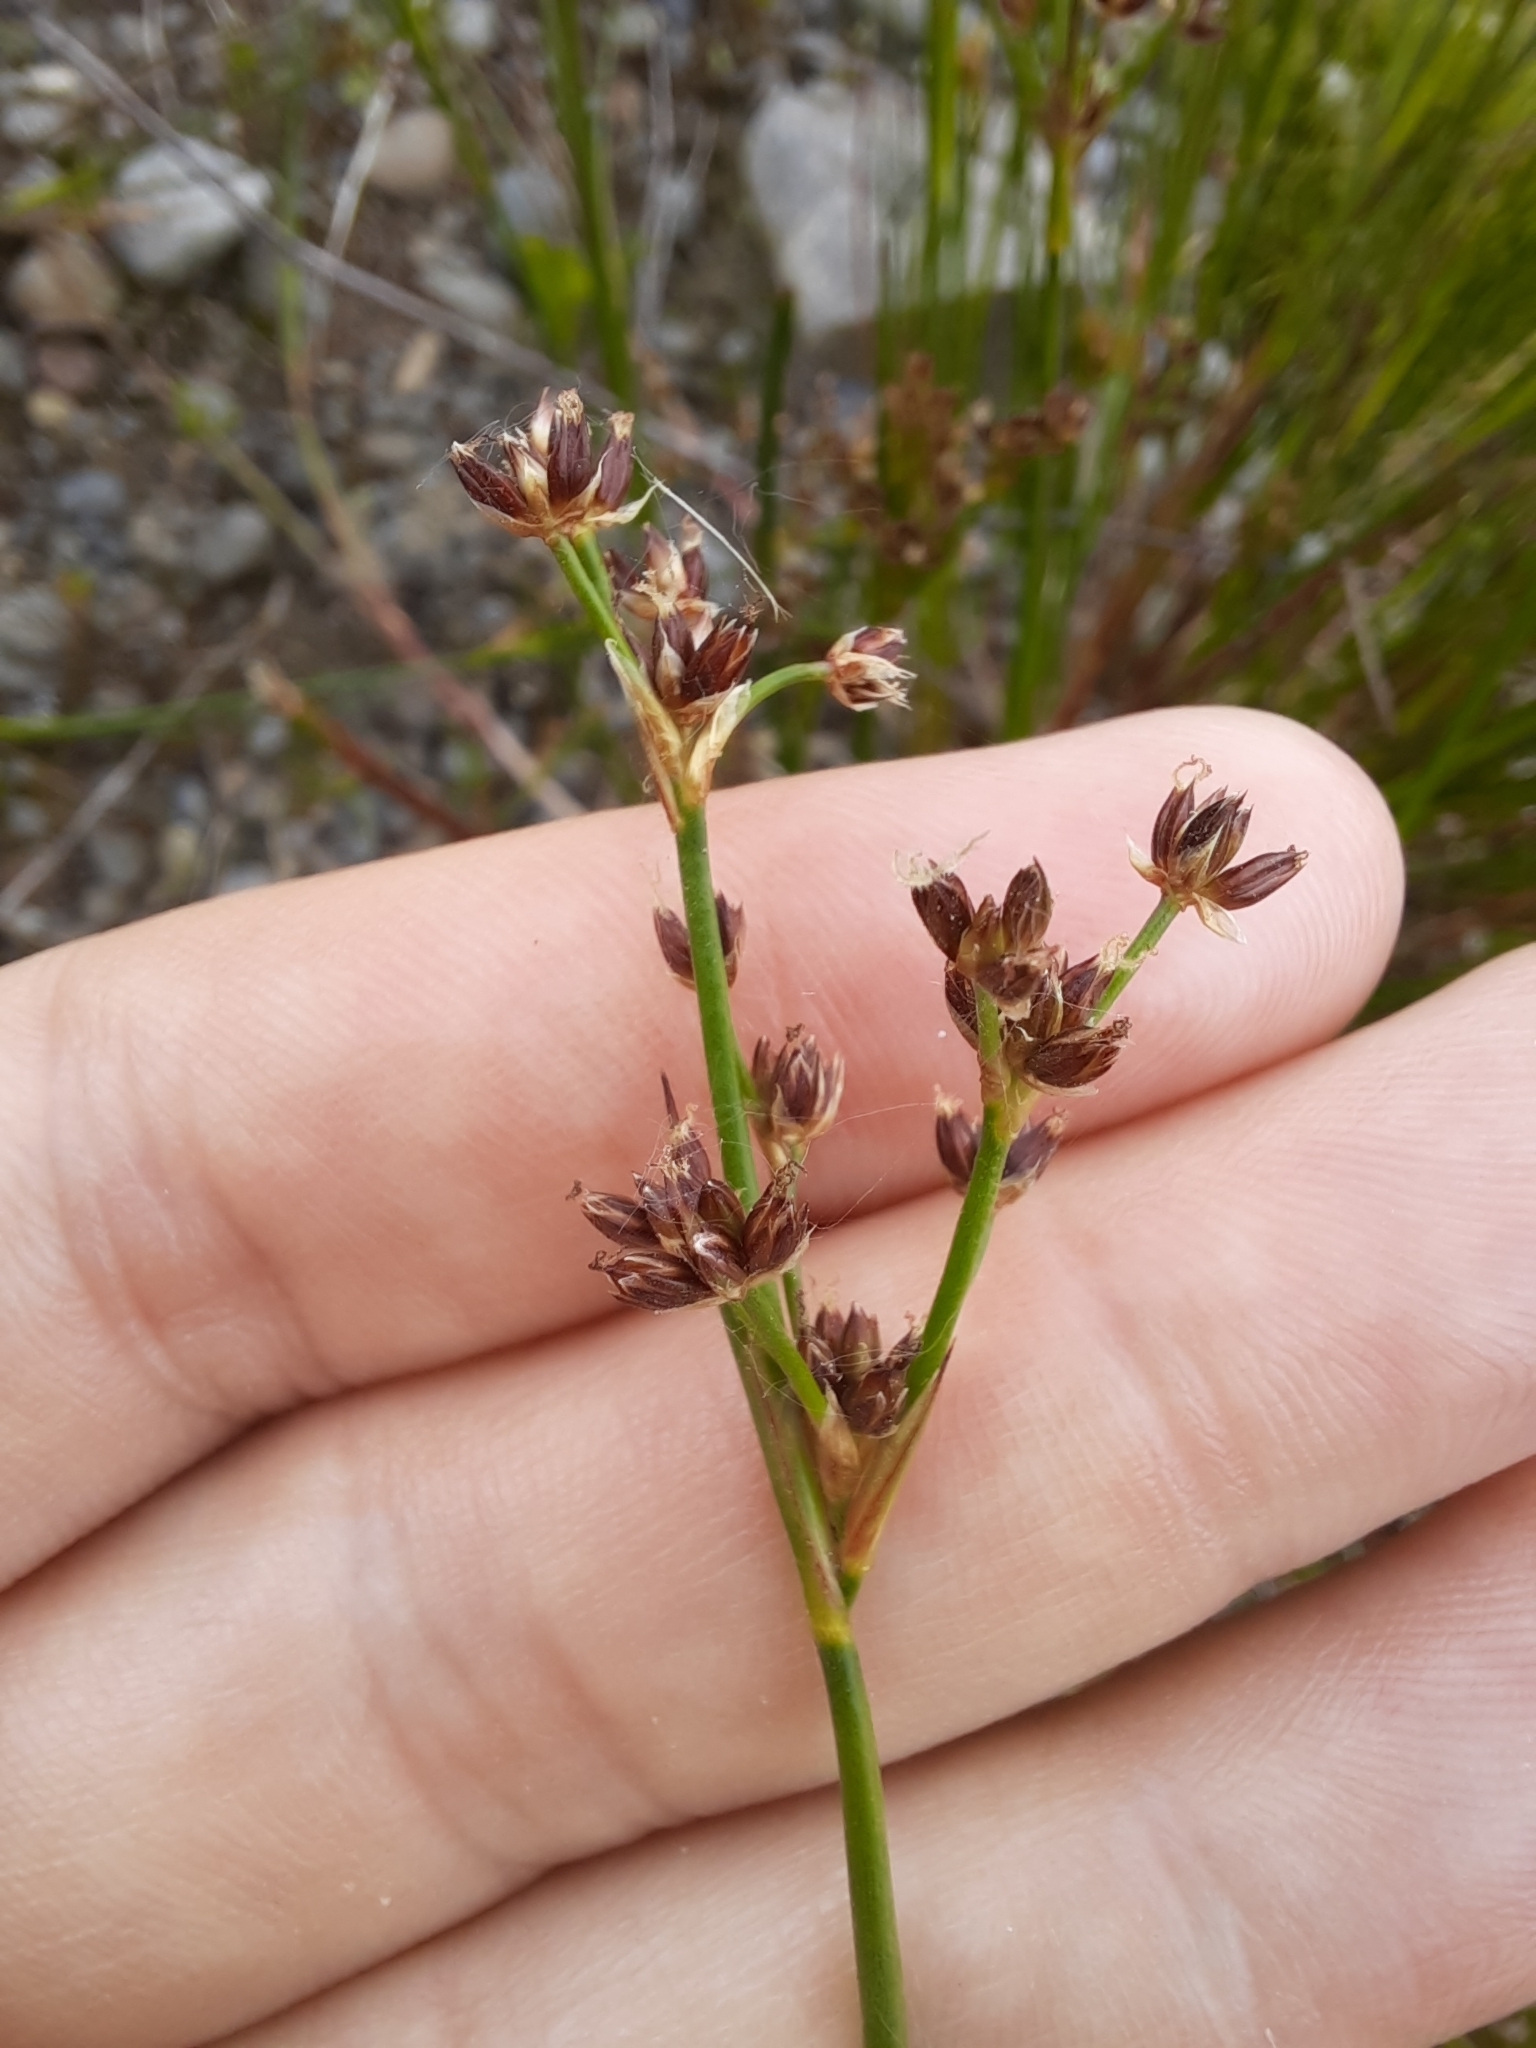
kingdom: Plantae
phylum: Tracheophyta
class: Liliopsida
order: Poales
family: Juncaceae
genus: Juncus
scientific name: Juncus articulatus
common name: Jointed rush
